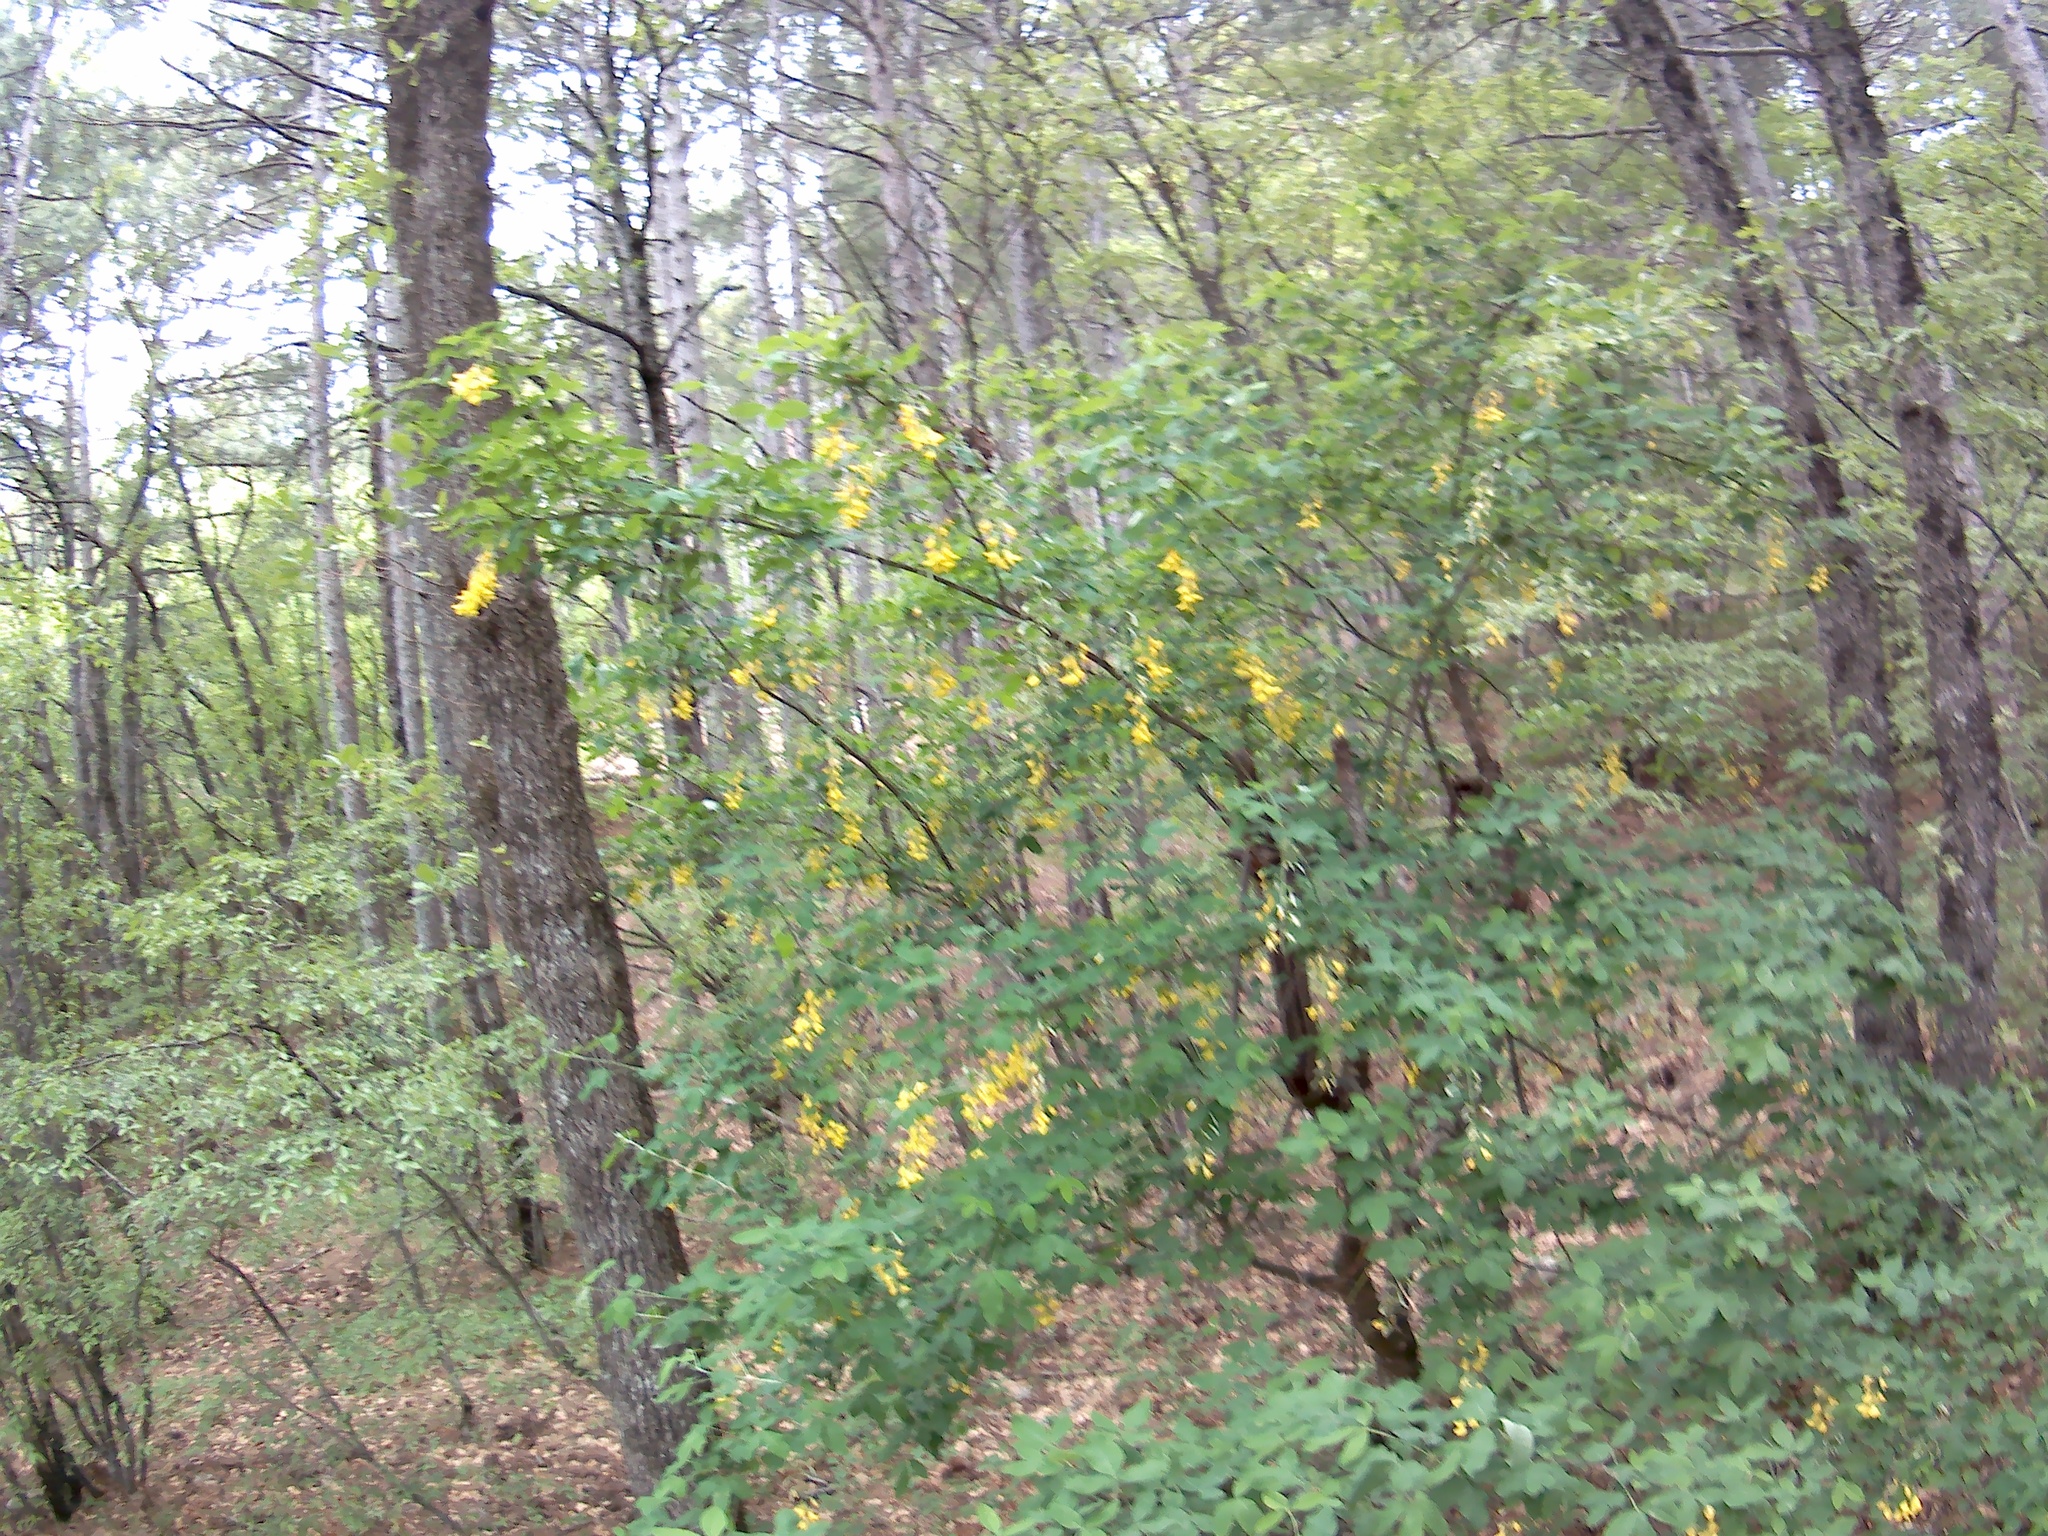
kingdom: Plantae
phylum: Tracheophyta
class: Magnoliopsida
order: Fabales
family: Fabaceae
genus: Laburnum
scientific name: Laburnum anagyroides
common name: Laburnum
